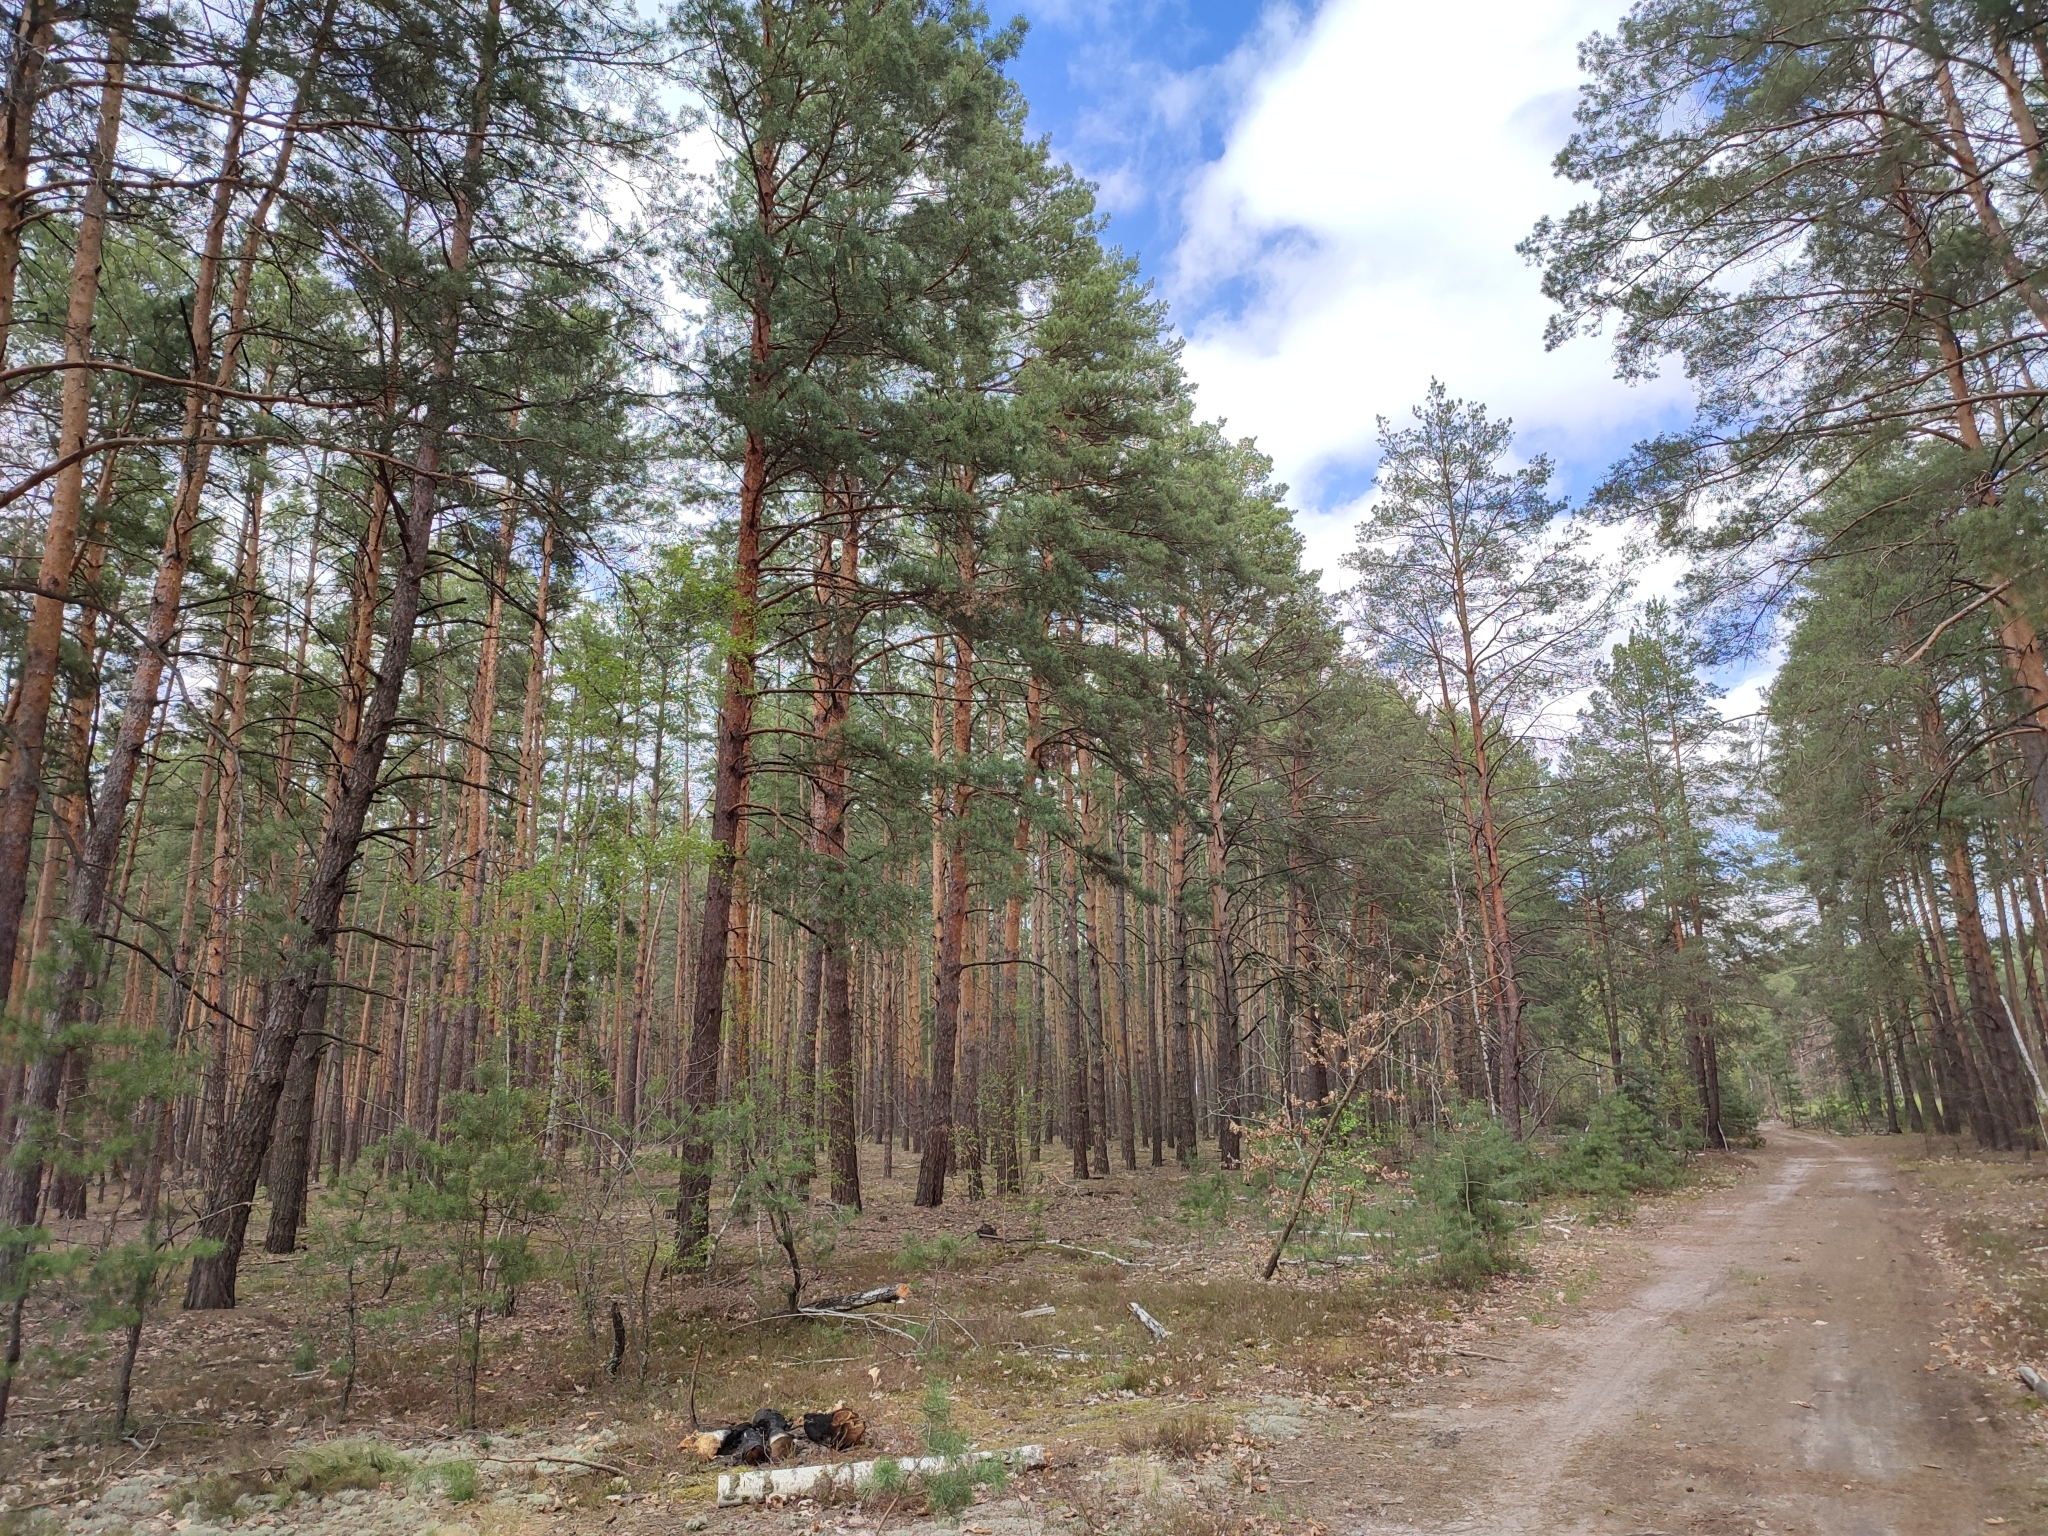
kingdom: Plantae
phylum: Tracheophyta
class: Pinopsida
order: Pinales
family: Pinaceae
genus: Pinus
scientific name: Pinus sylvestris
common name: Scots pine
